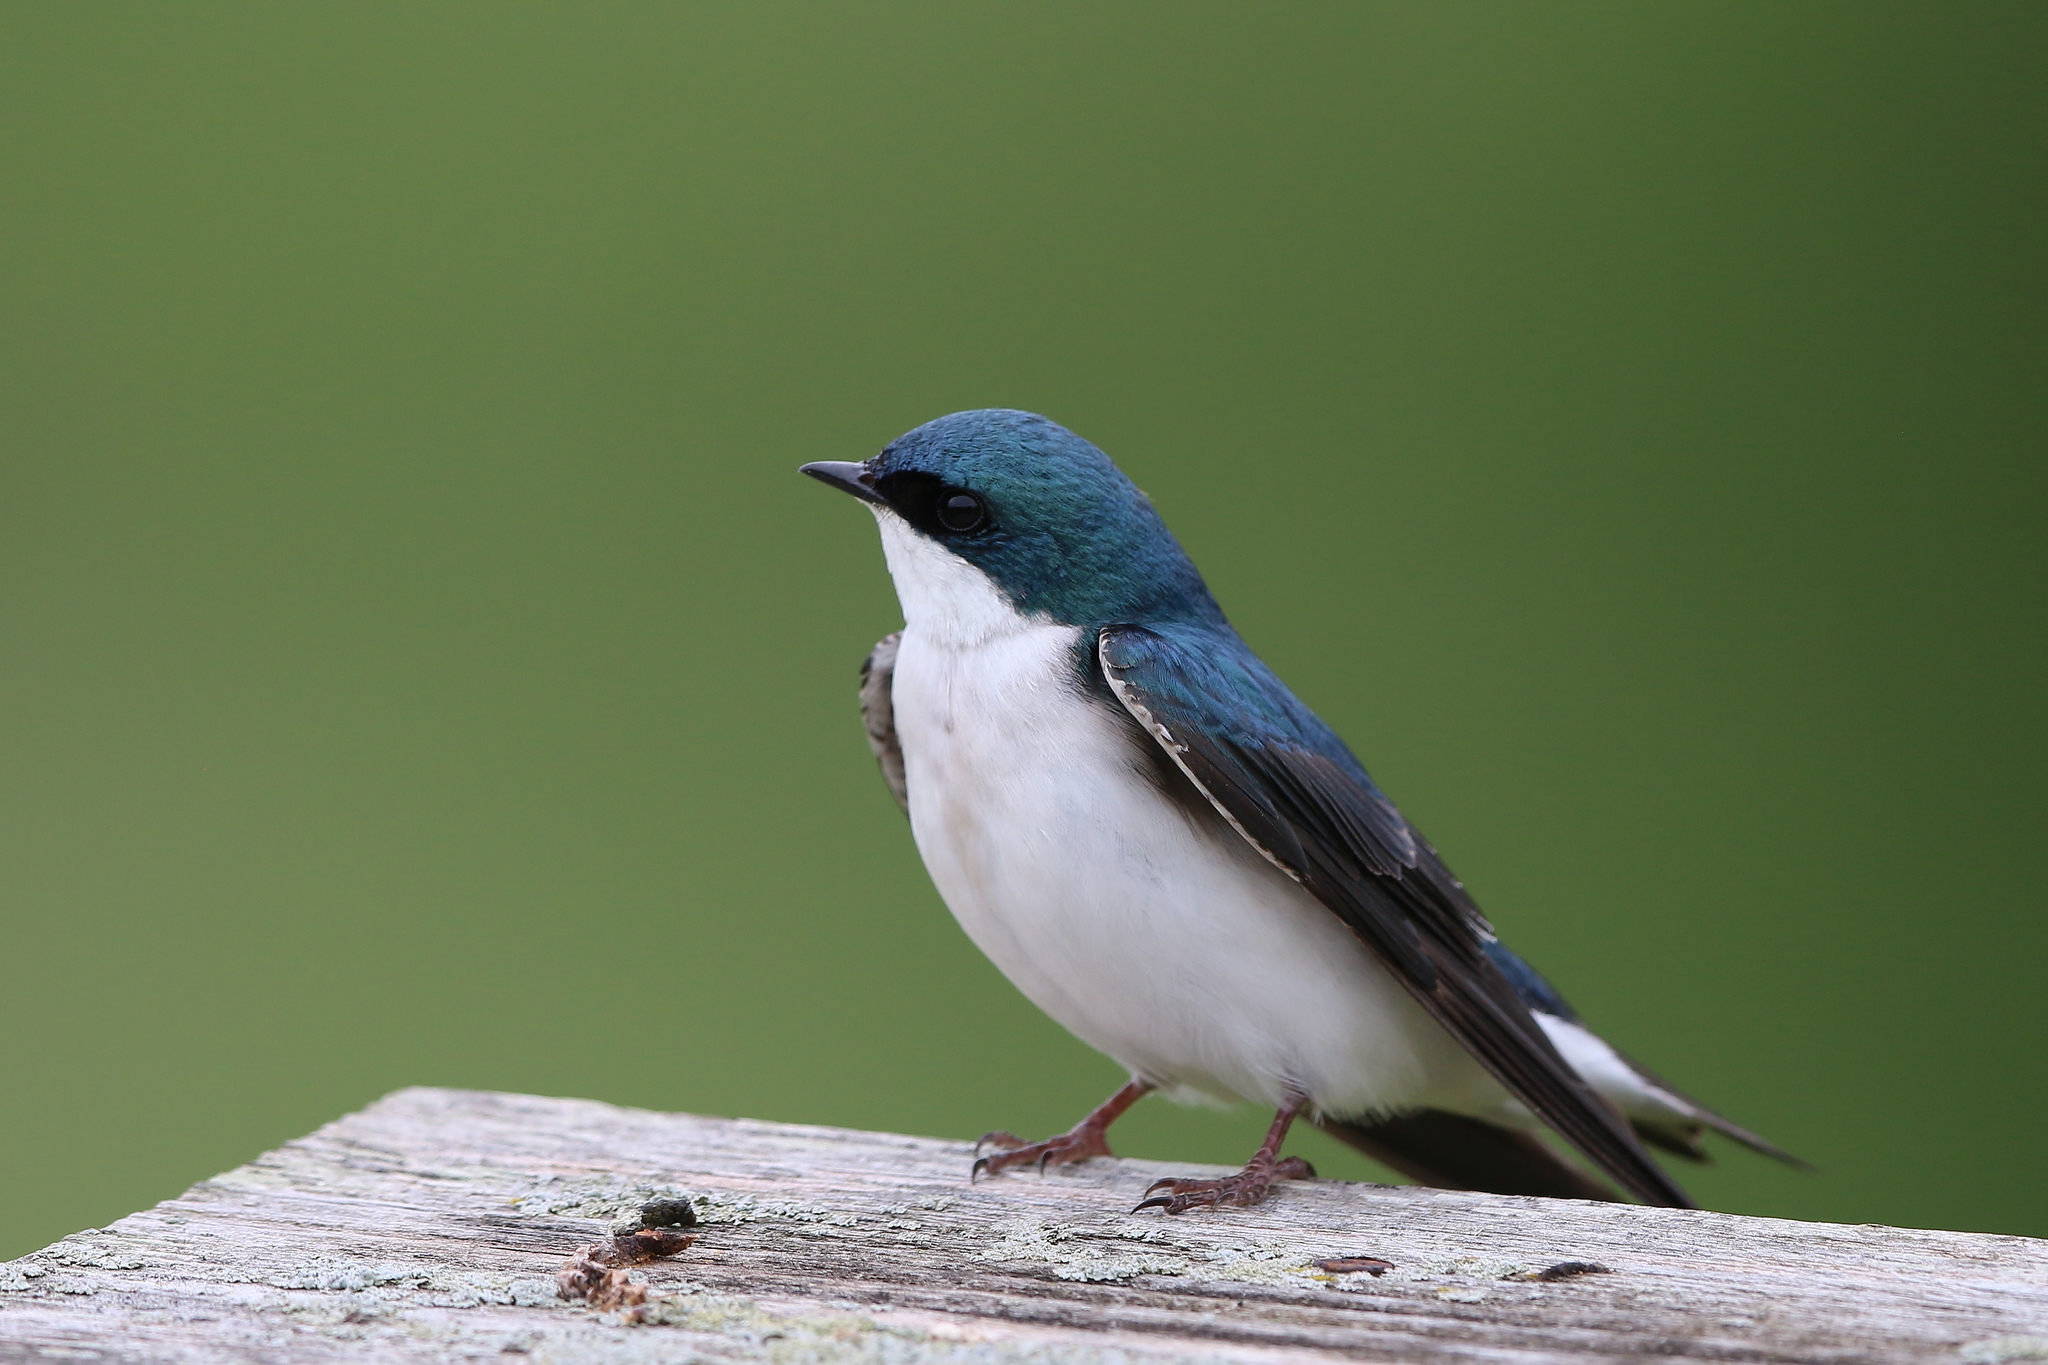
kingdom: Animalia
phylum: Chordata
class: Aves
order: Passeriformes
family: Hirundinidae
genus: Tachycineta
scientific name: Tachycineta bicolor
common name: Tree swallow
